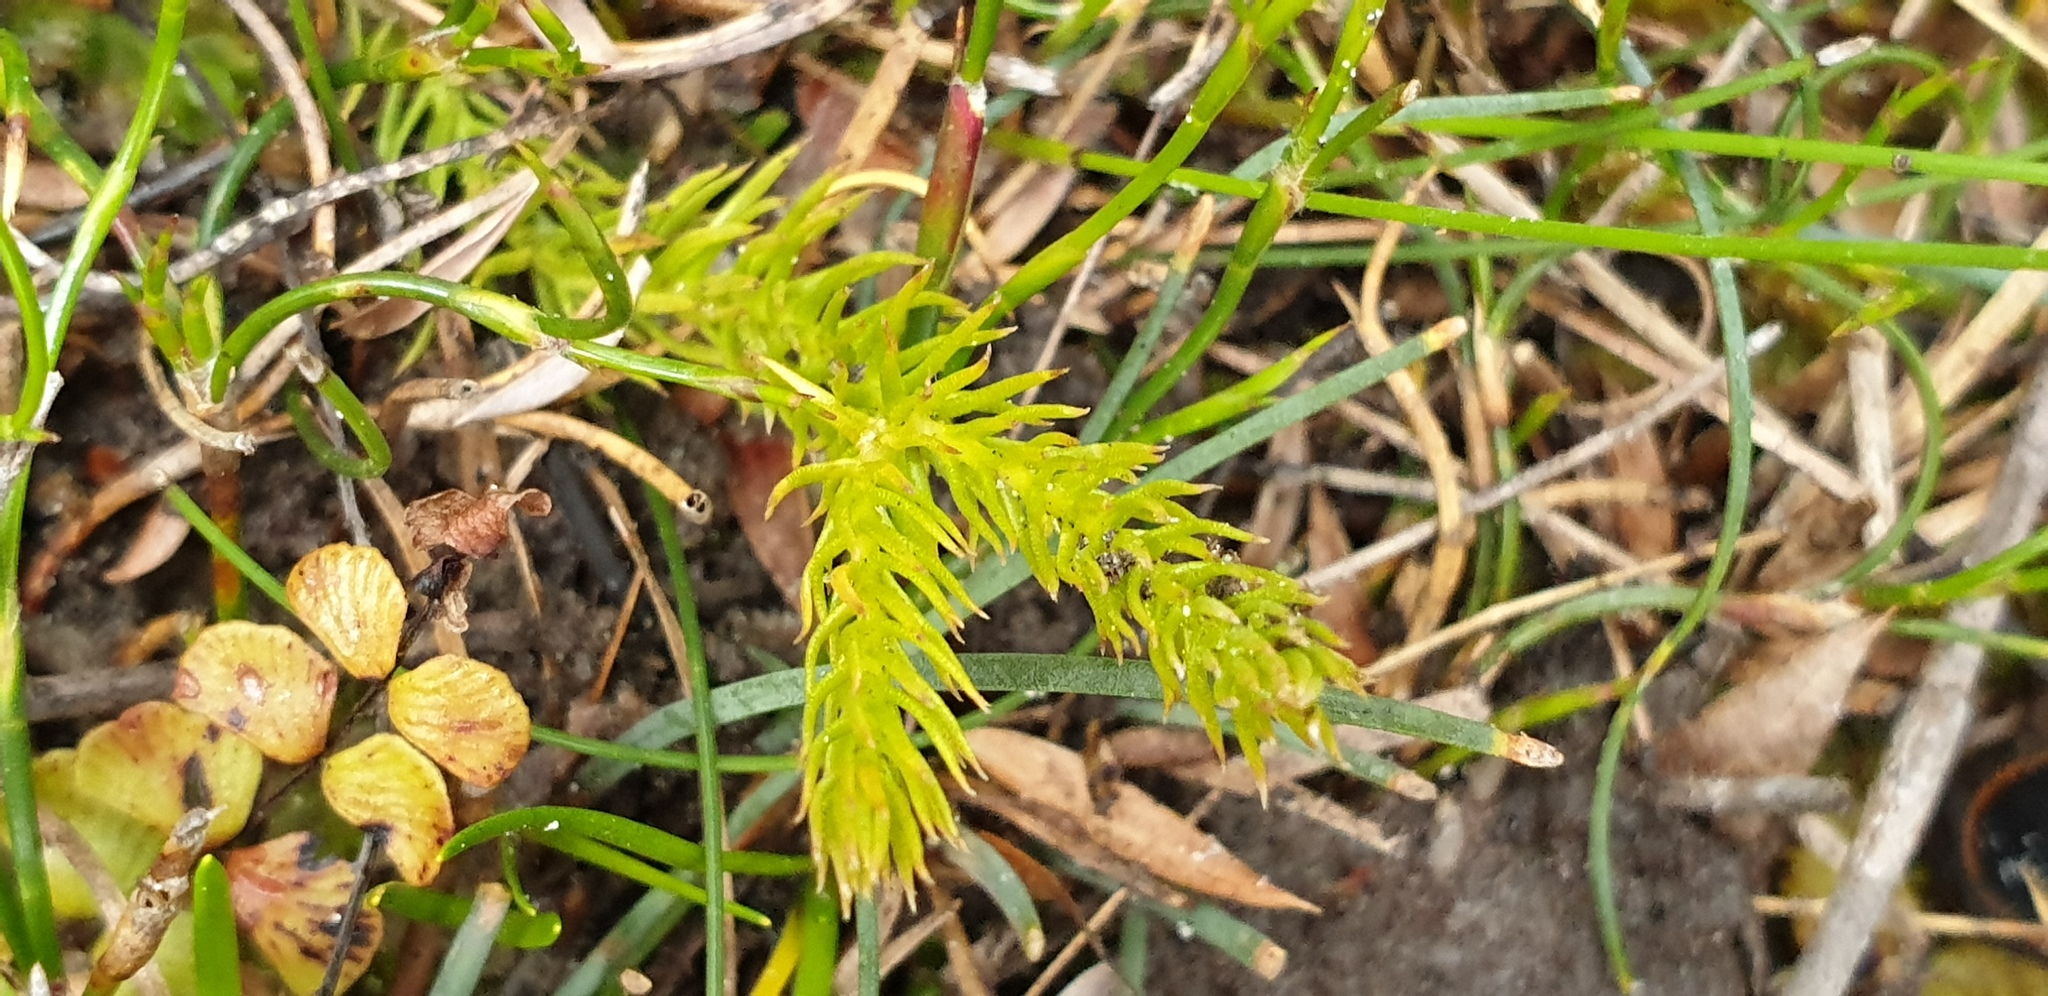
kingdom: Plantae
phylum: Tracheophyta
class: Lycopodiopsida
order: Lycopodiales
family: Lycopodiaceae
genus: Lateristachys
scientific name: Lateristachys lateralis
